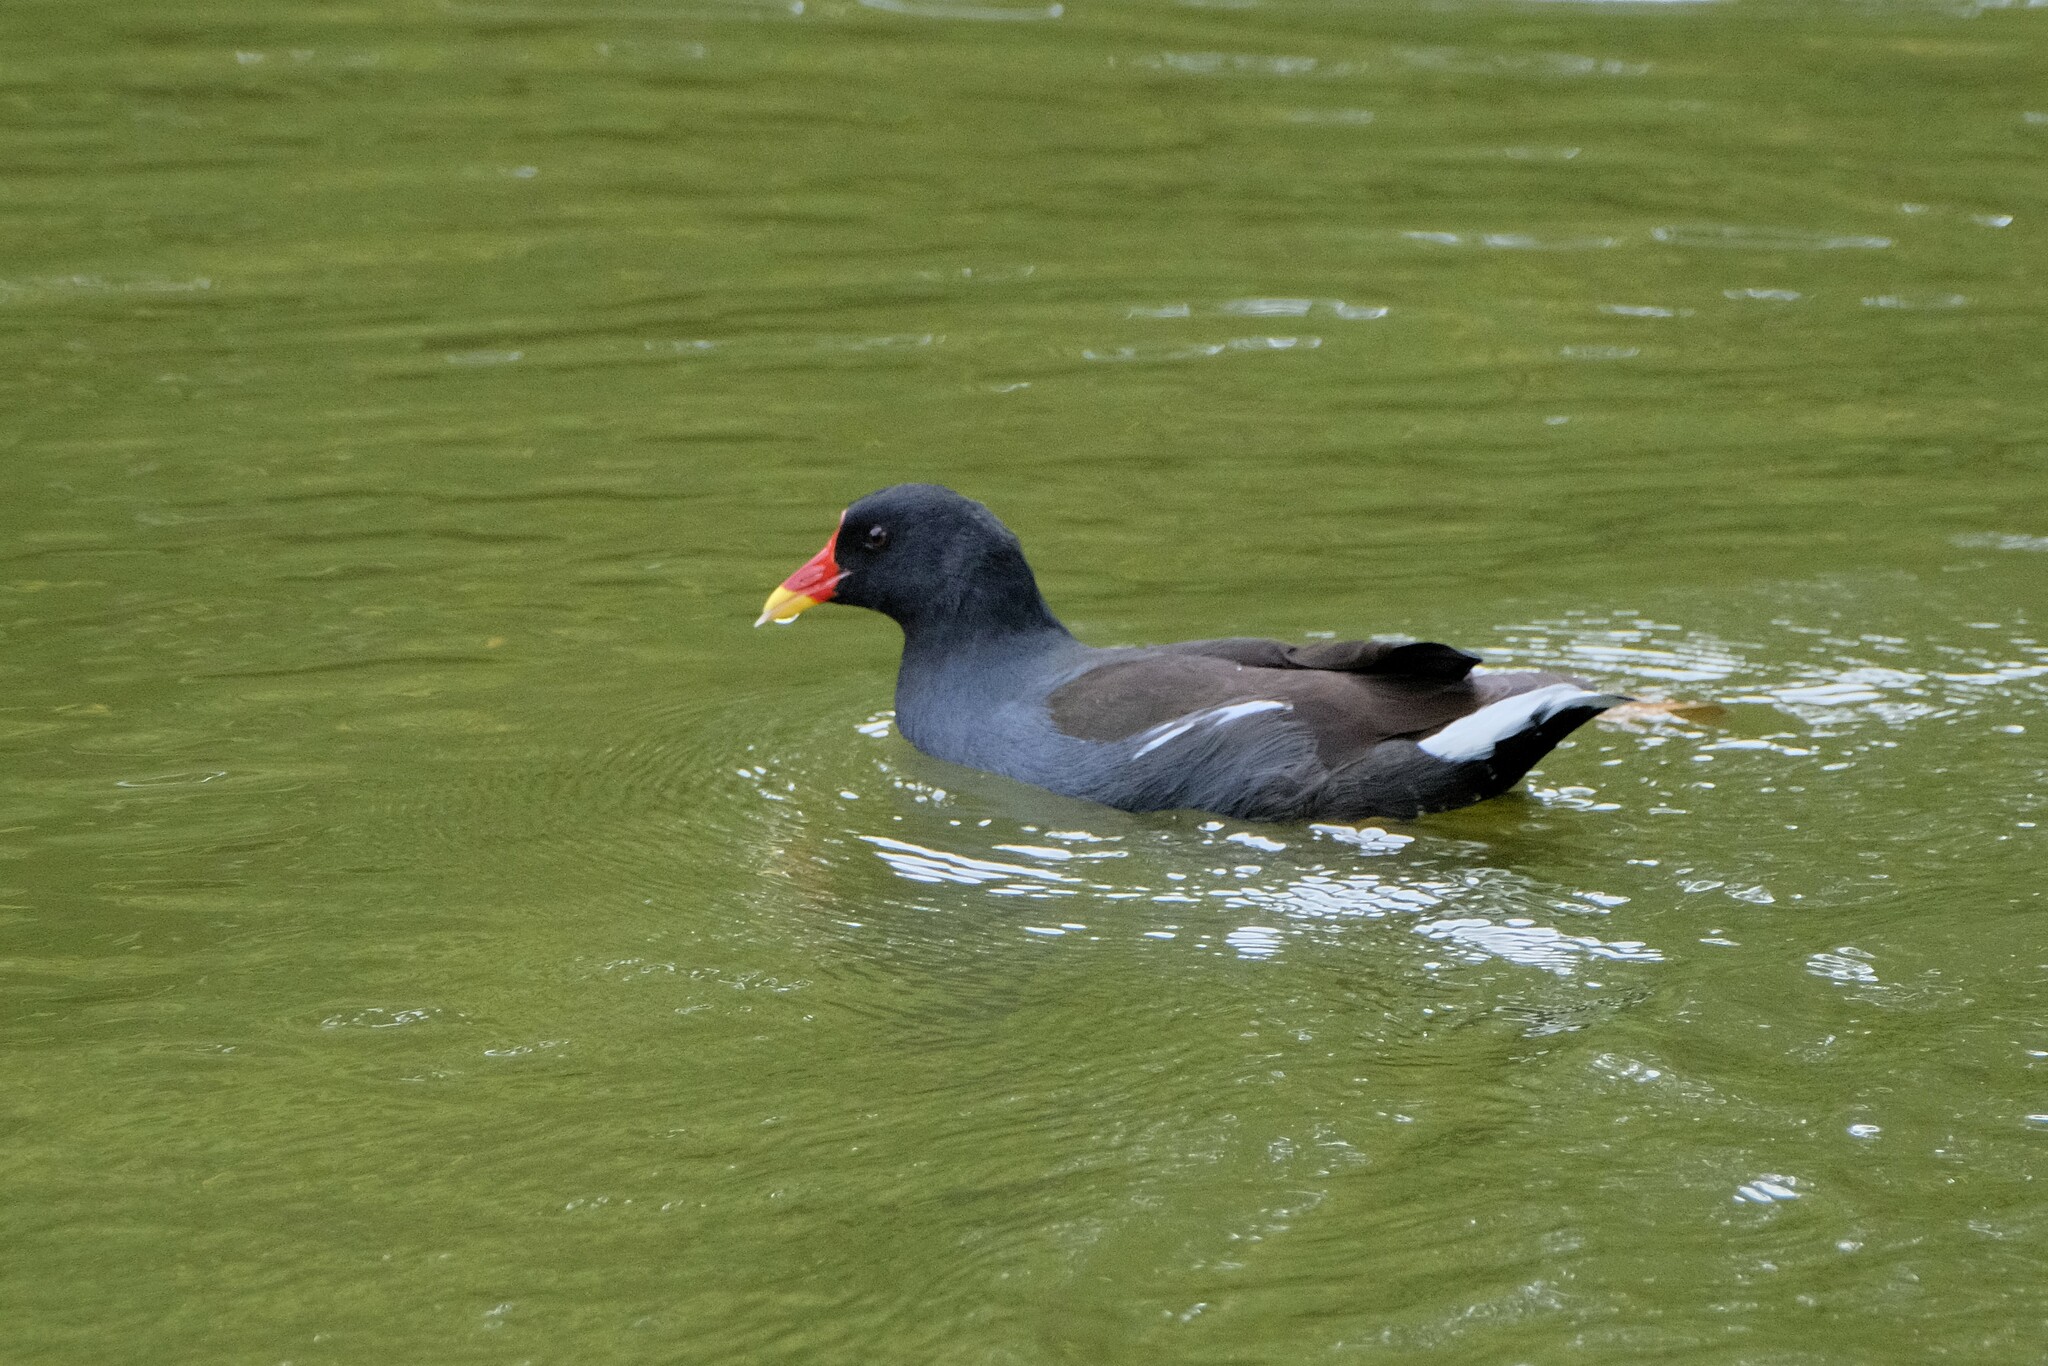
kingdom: Animalia
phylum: Chordata
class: Aves
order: Gruiformes
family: Rallidae
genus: Gallinula
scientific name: Gallinula chloropus
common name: Common moorhen
